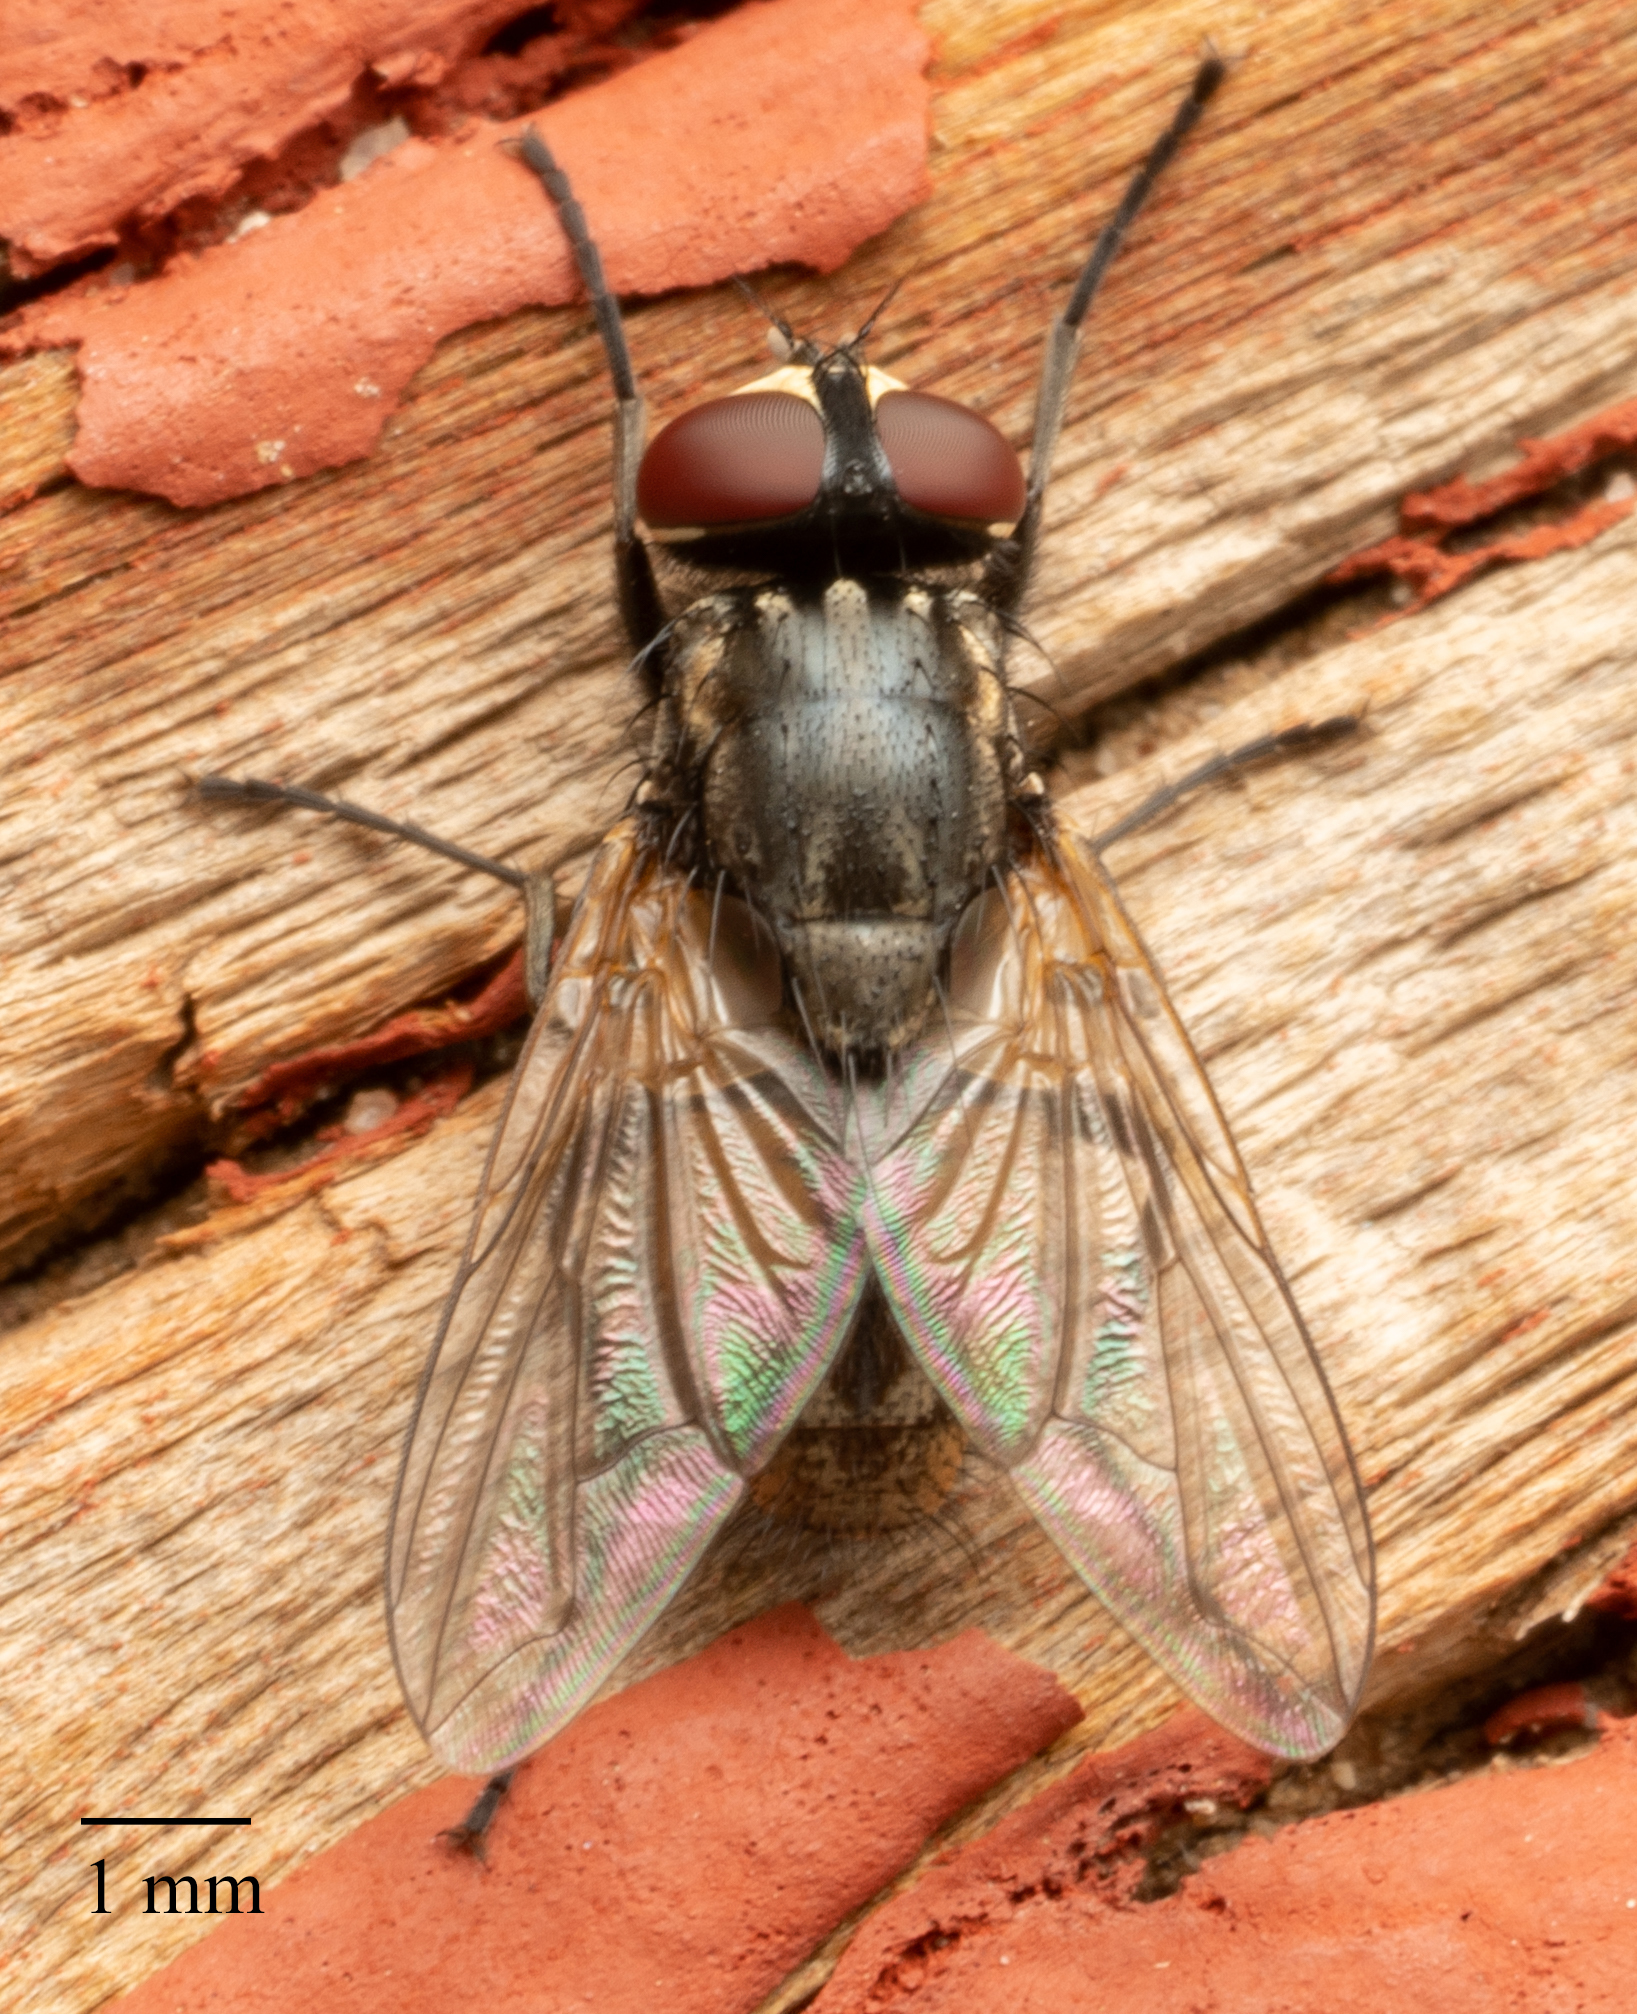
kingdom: Animalia
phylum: Arthropoda
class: Insecta
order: Diptera
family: Muscidae
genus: Musca
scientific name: Musca domestica
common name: House fly
